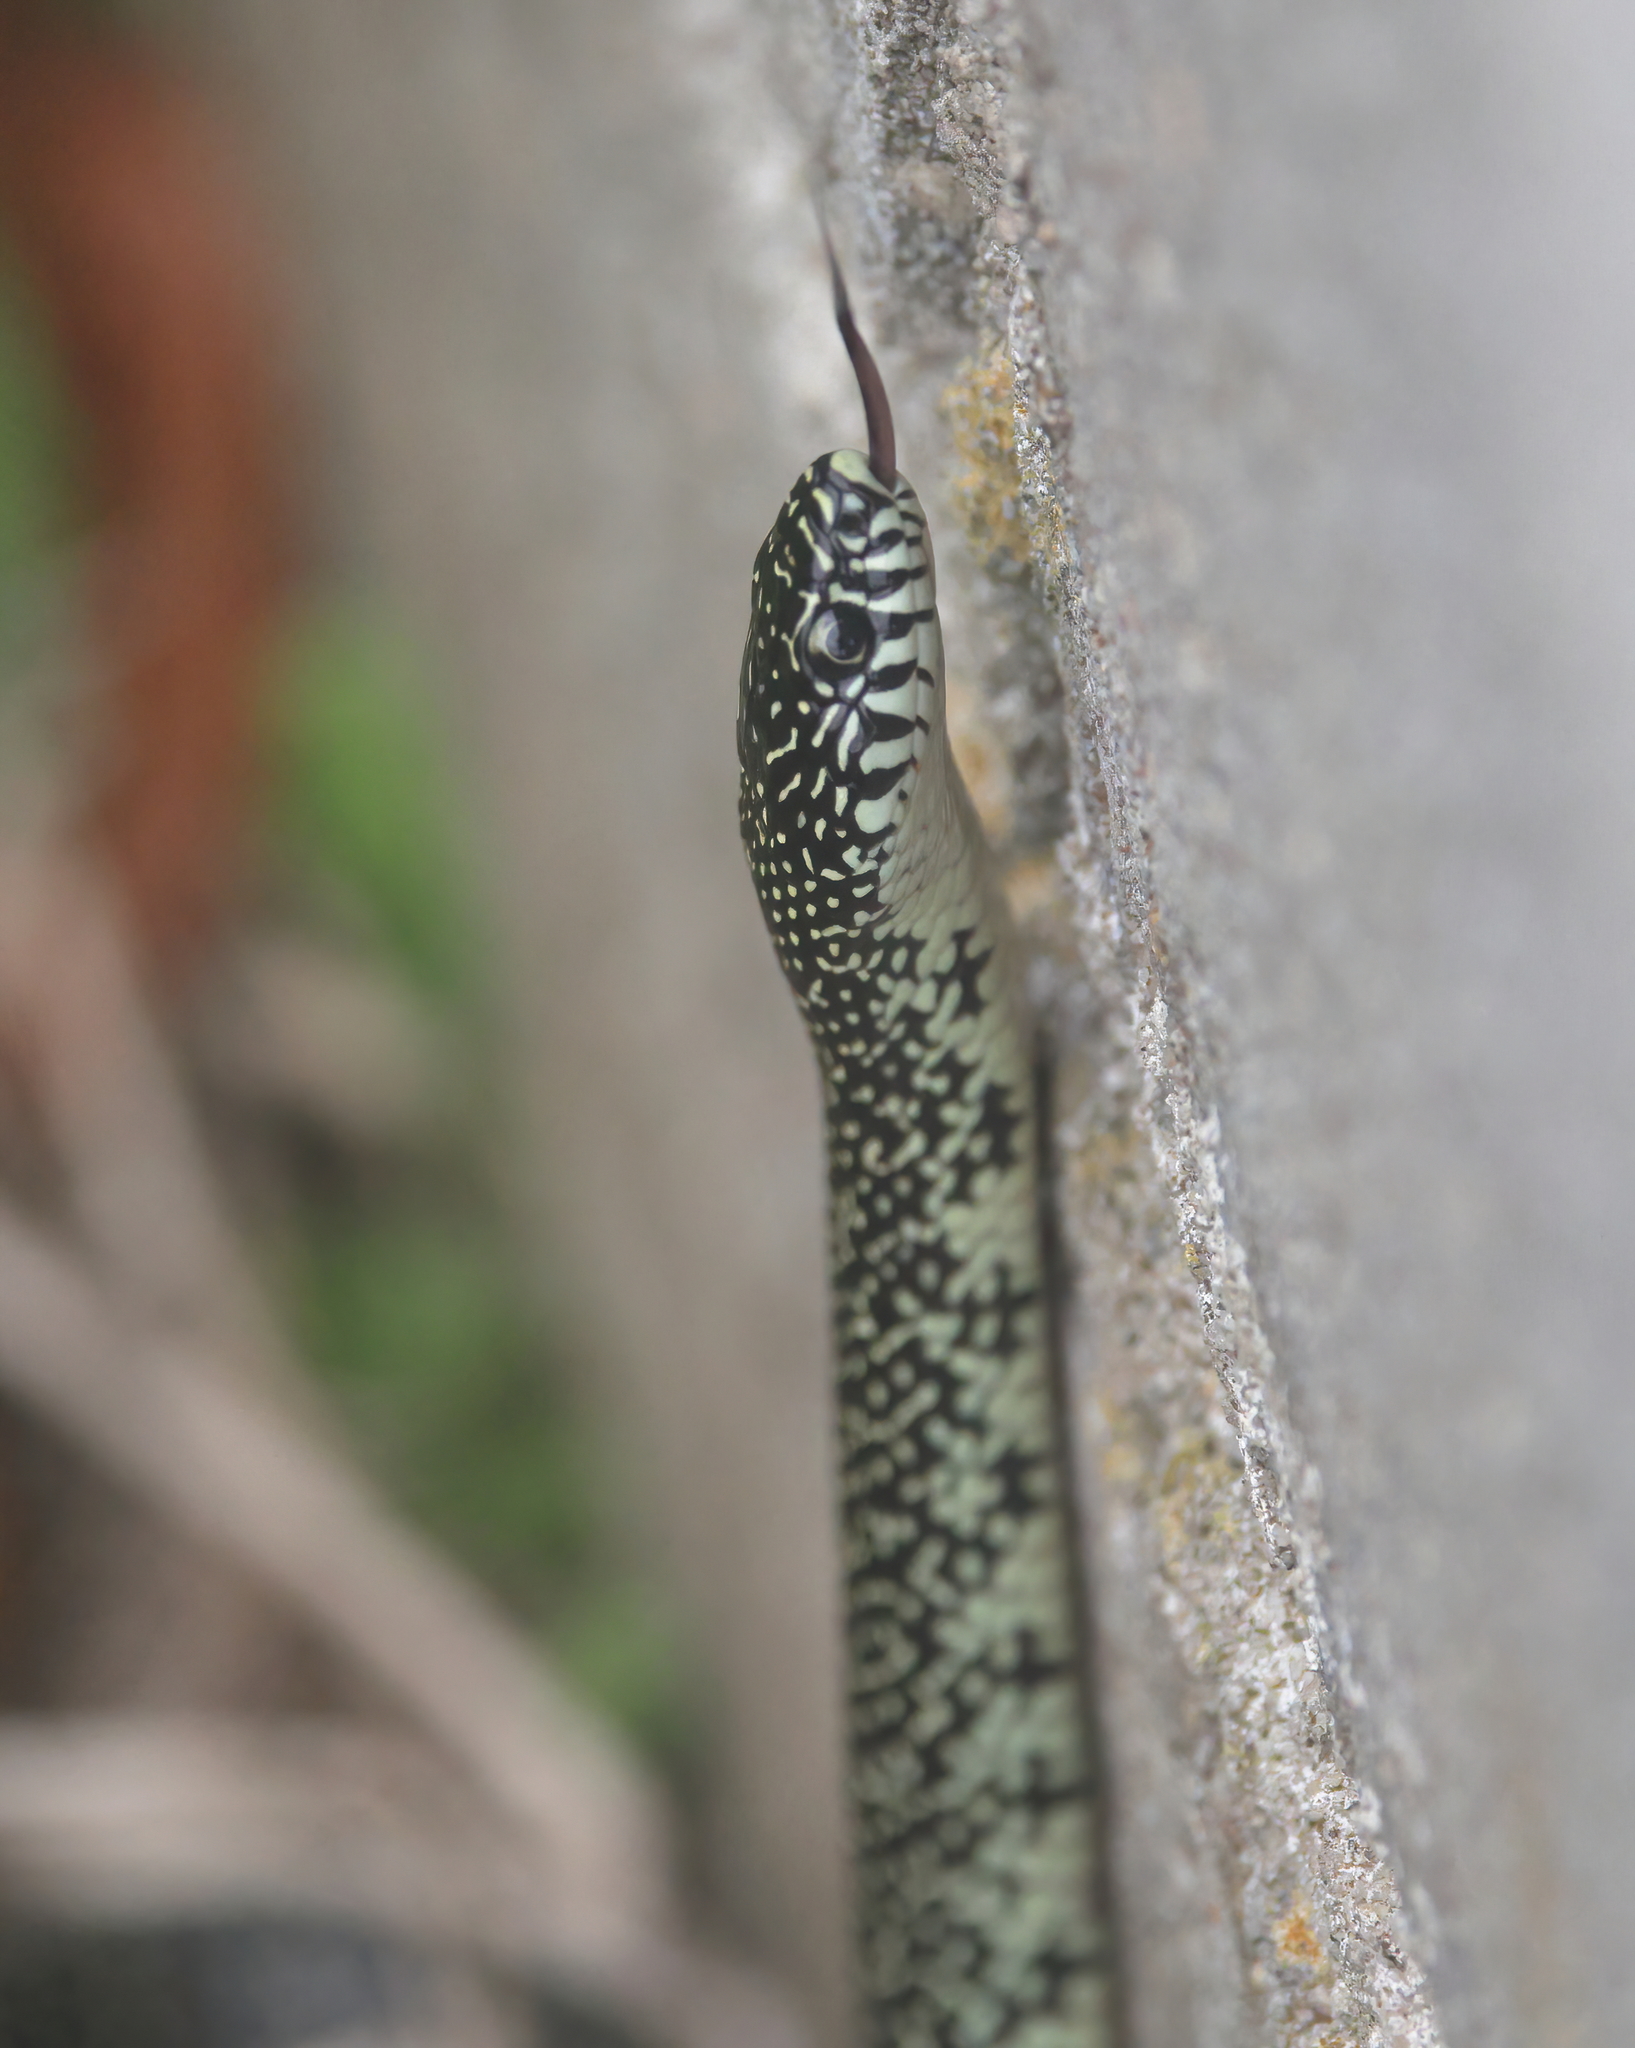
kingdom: Animalia
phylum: Chordata
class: Squamata
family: Colubridae
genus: Lampropeltis
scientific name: Lampropeltis holbrooki
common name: Speckled kingsnake
